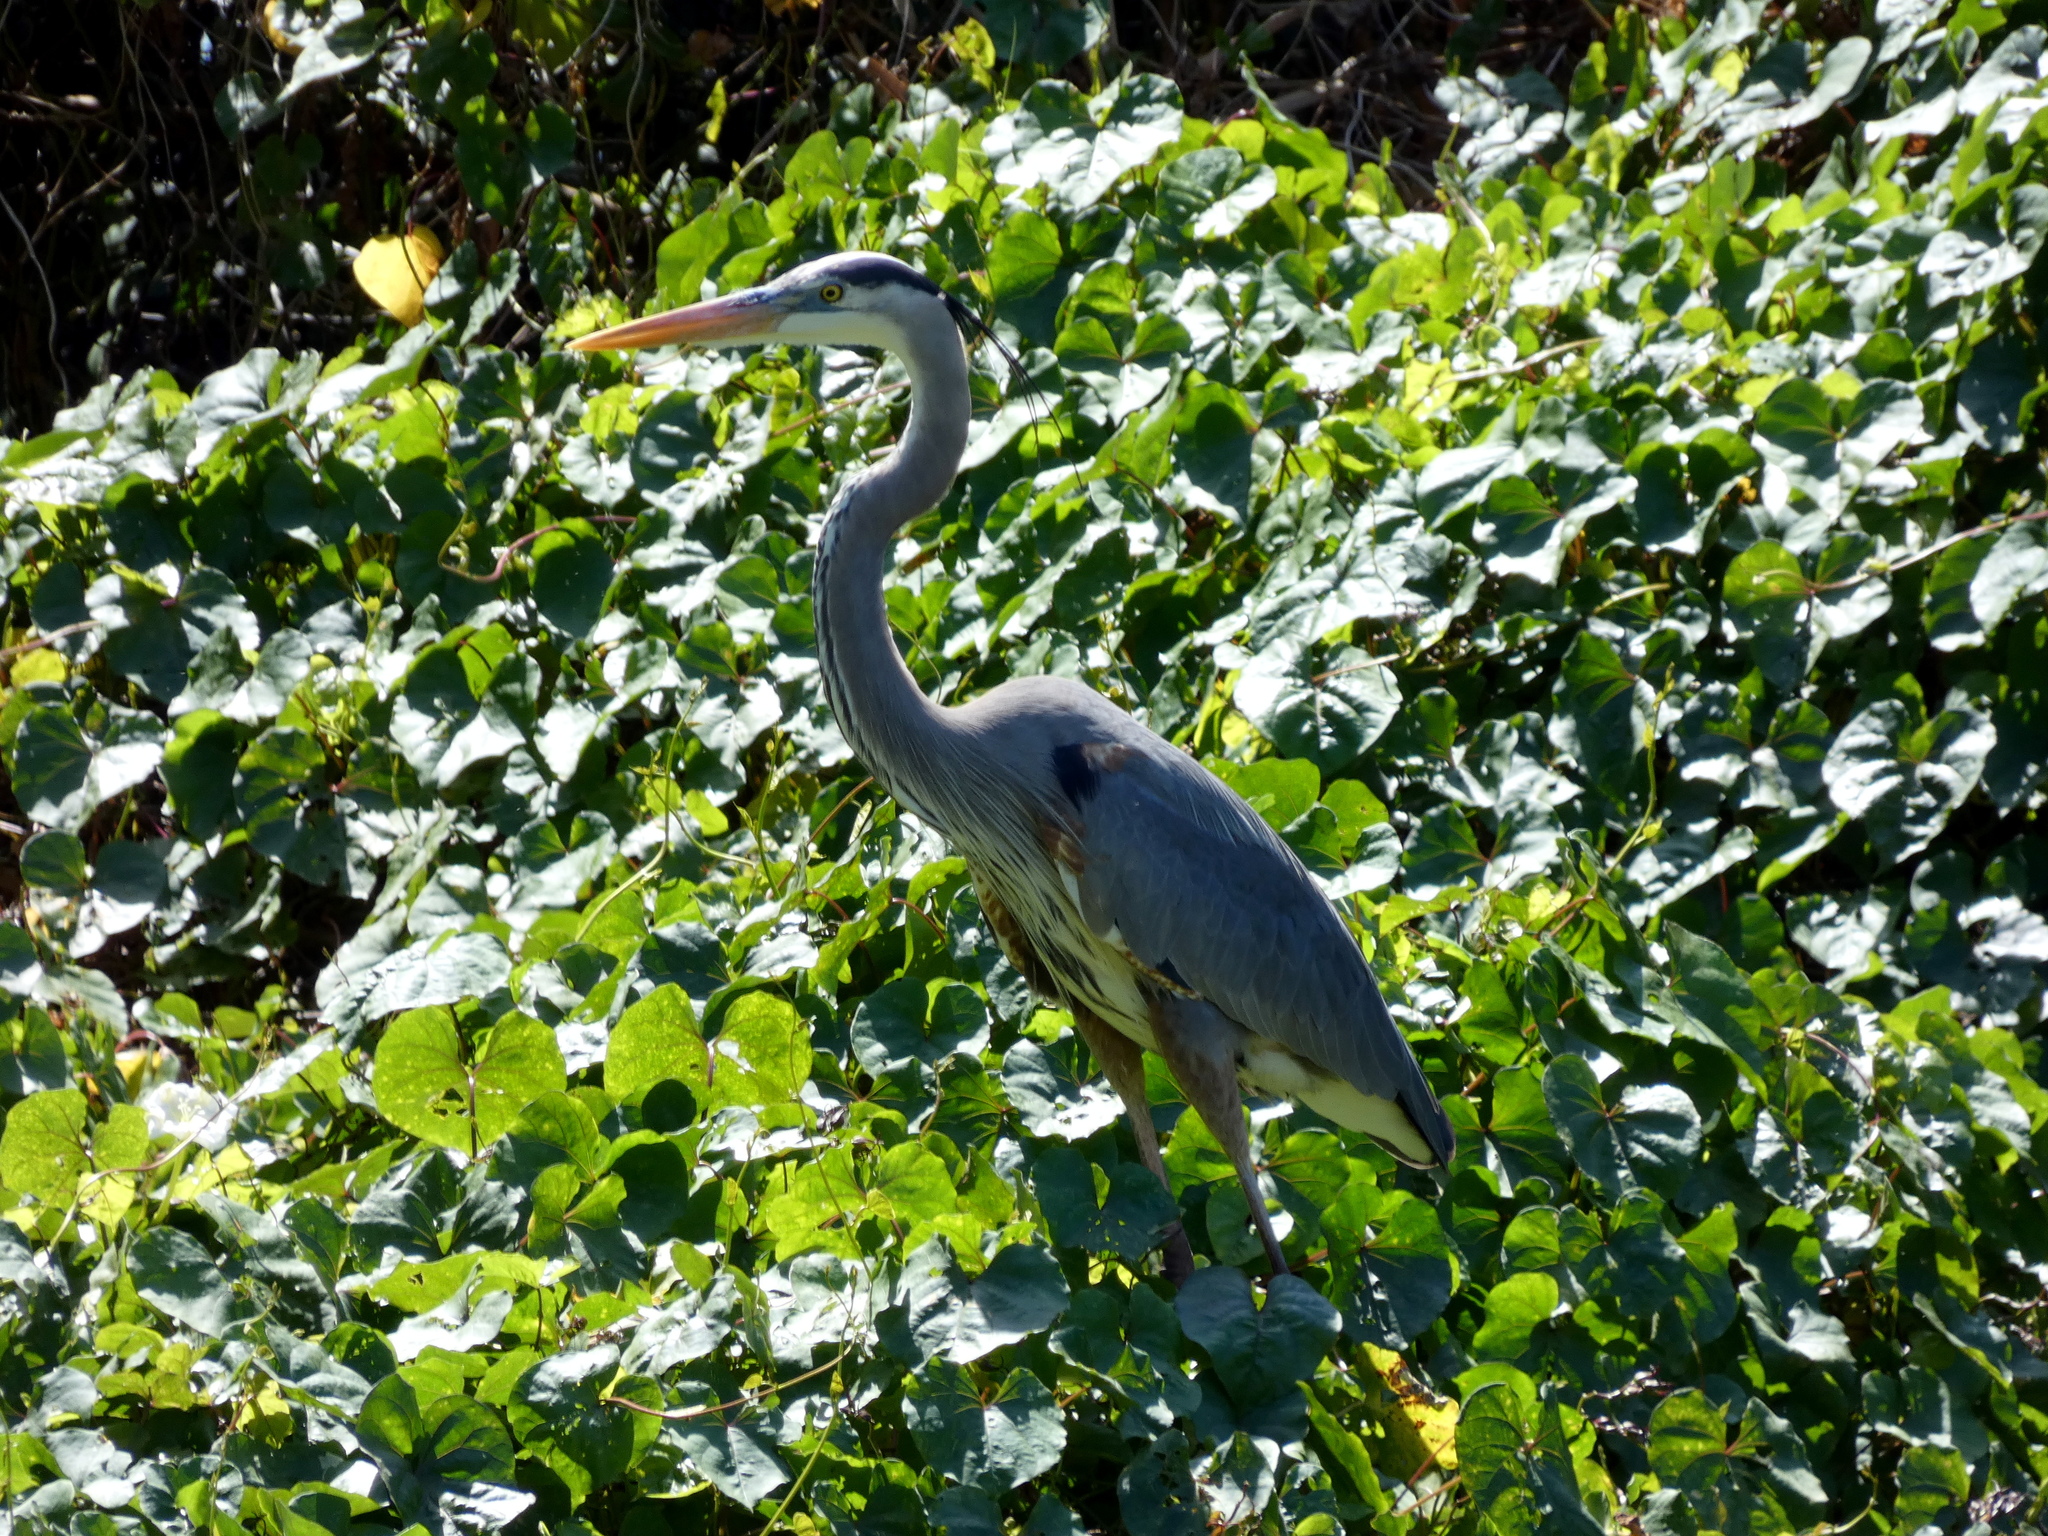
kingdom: Animalia
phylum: Chordata
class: Aves
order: Pelecaniformes
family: Ardeidae
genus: Ardea
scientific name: Ardea herodias
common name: Great blue heron
